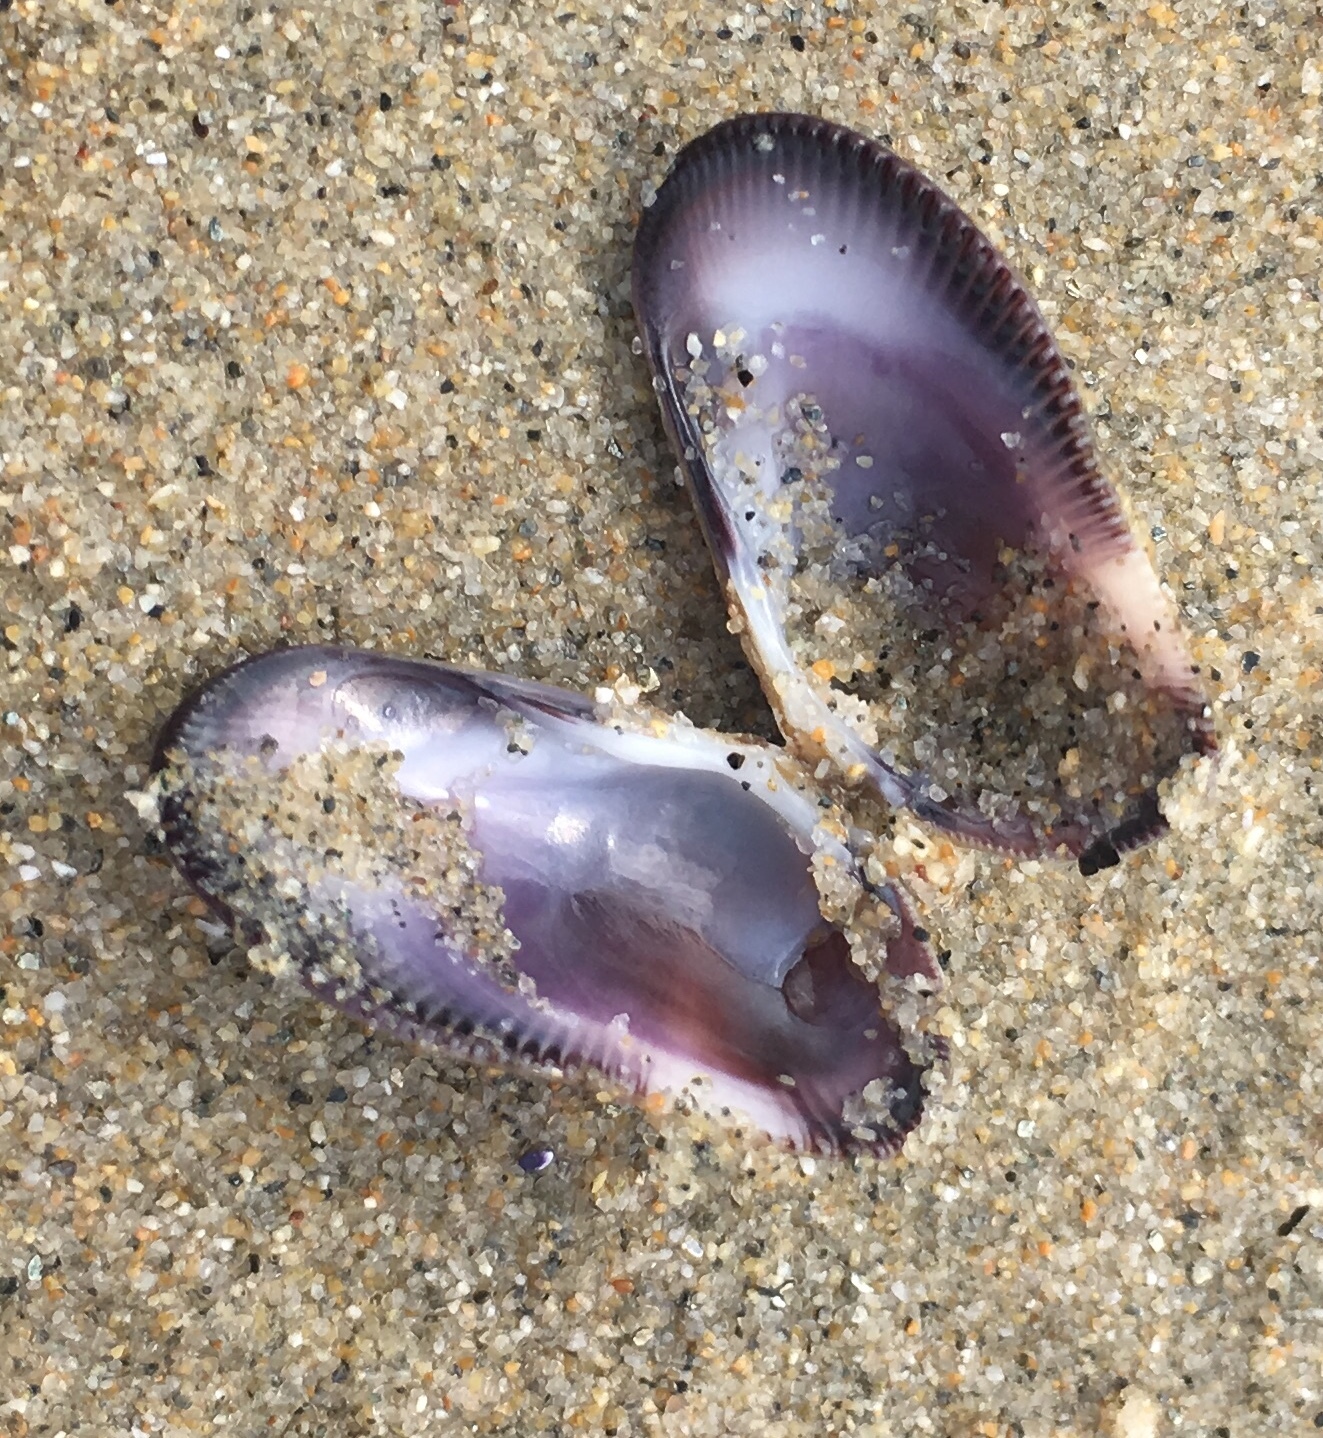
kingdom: Animalia
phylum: Mollusca
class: Bivalvia
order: Cardiida
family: Donacidae
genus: Donax
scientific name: Donax gouldii
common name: Gould beanclam
